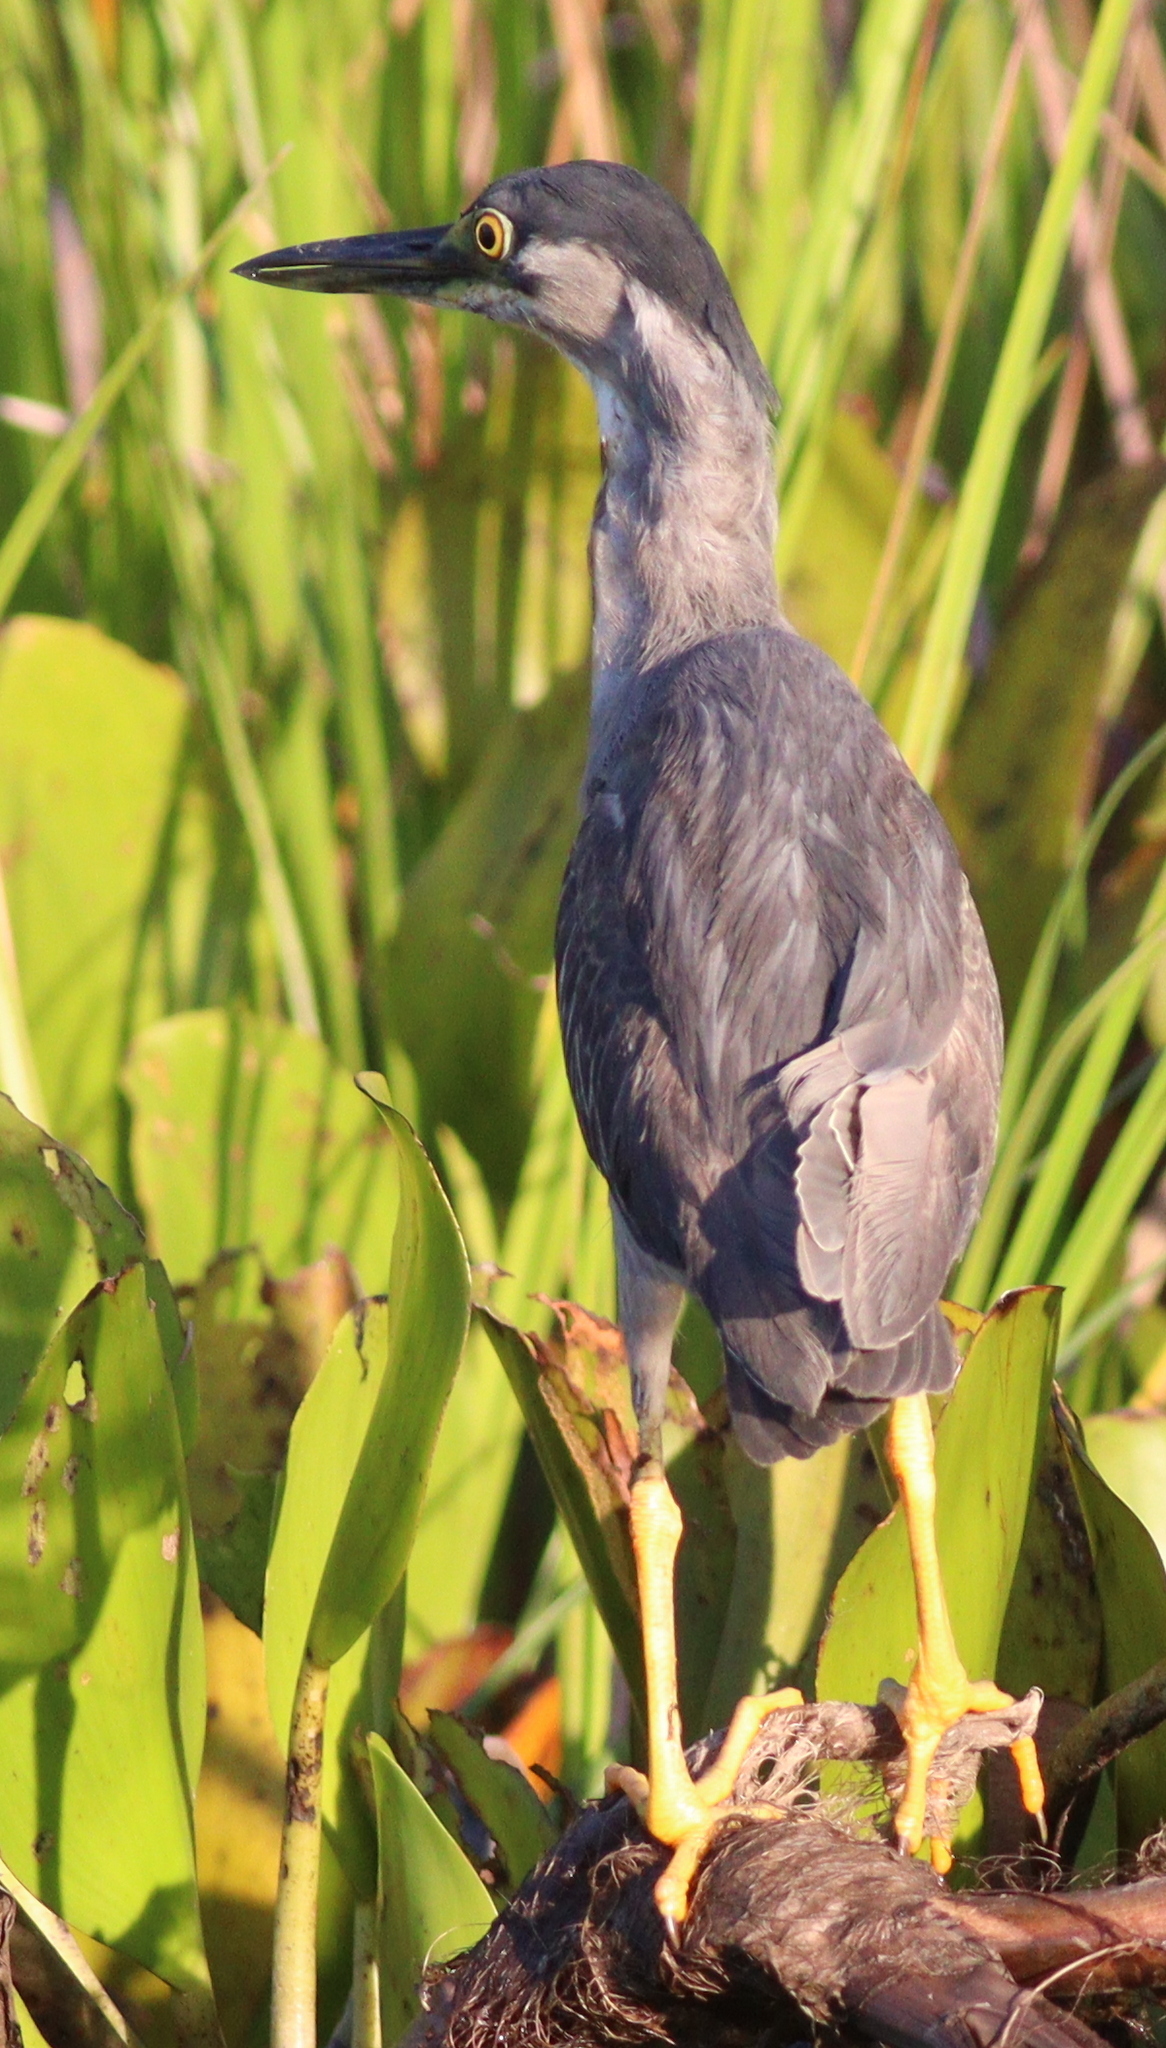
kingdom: Animalia
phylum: Chordata
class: Aves
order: Pelecaniformes
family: Ardeidae
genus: Butorides
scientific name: Butorides striata
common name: Striated heron
